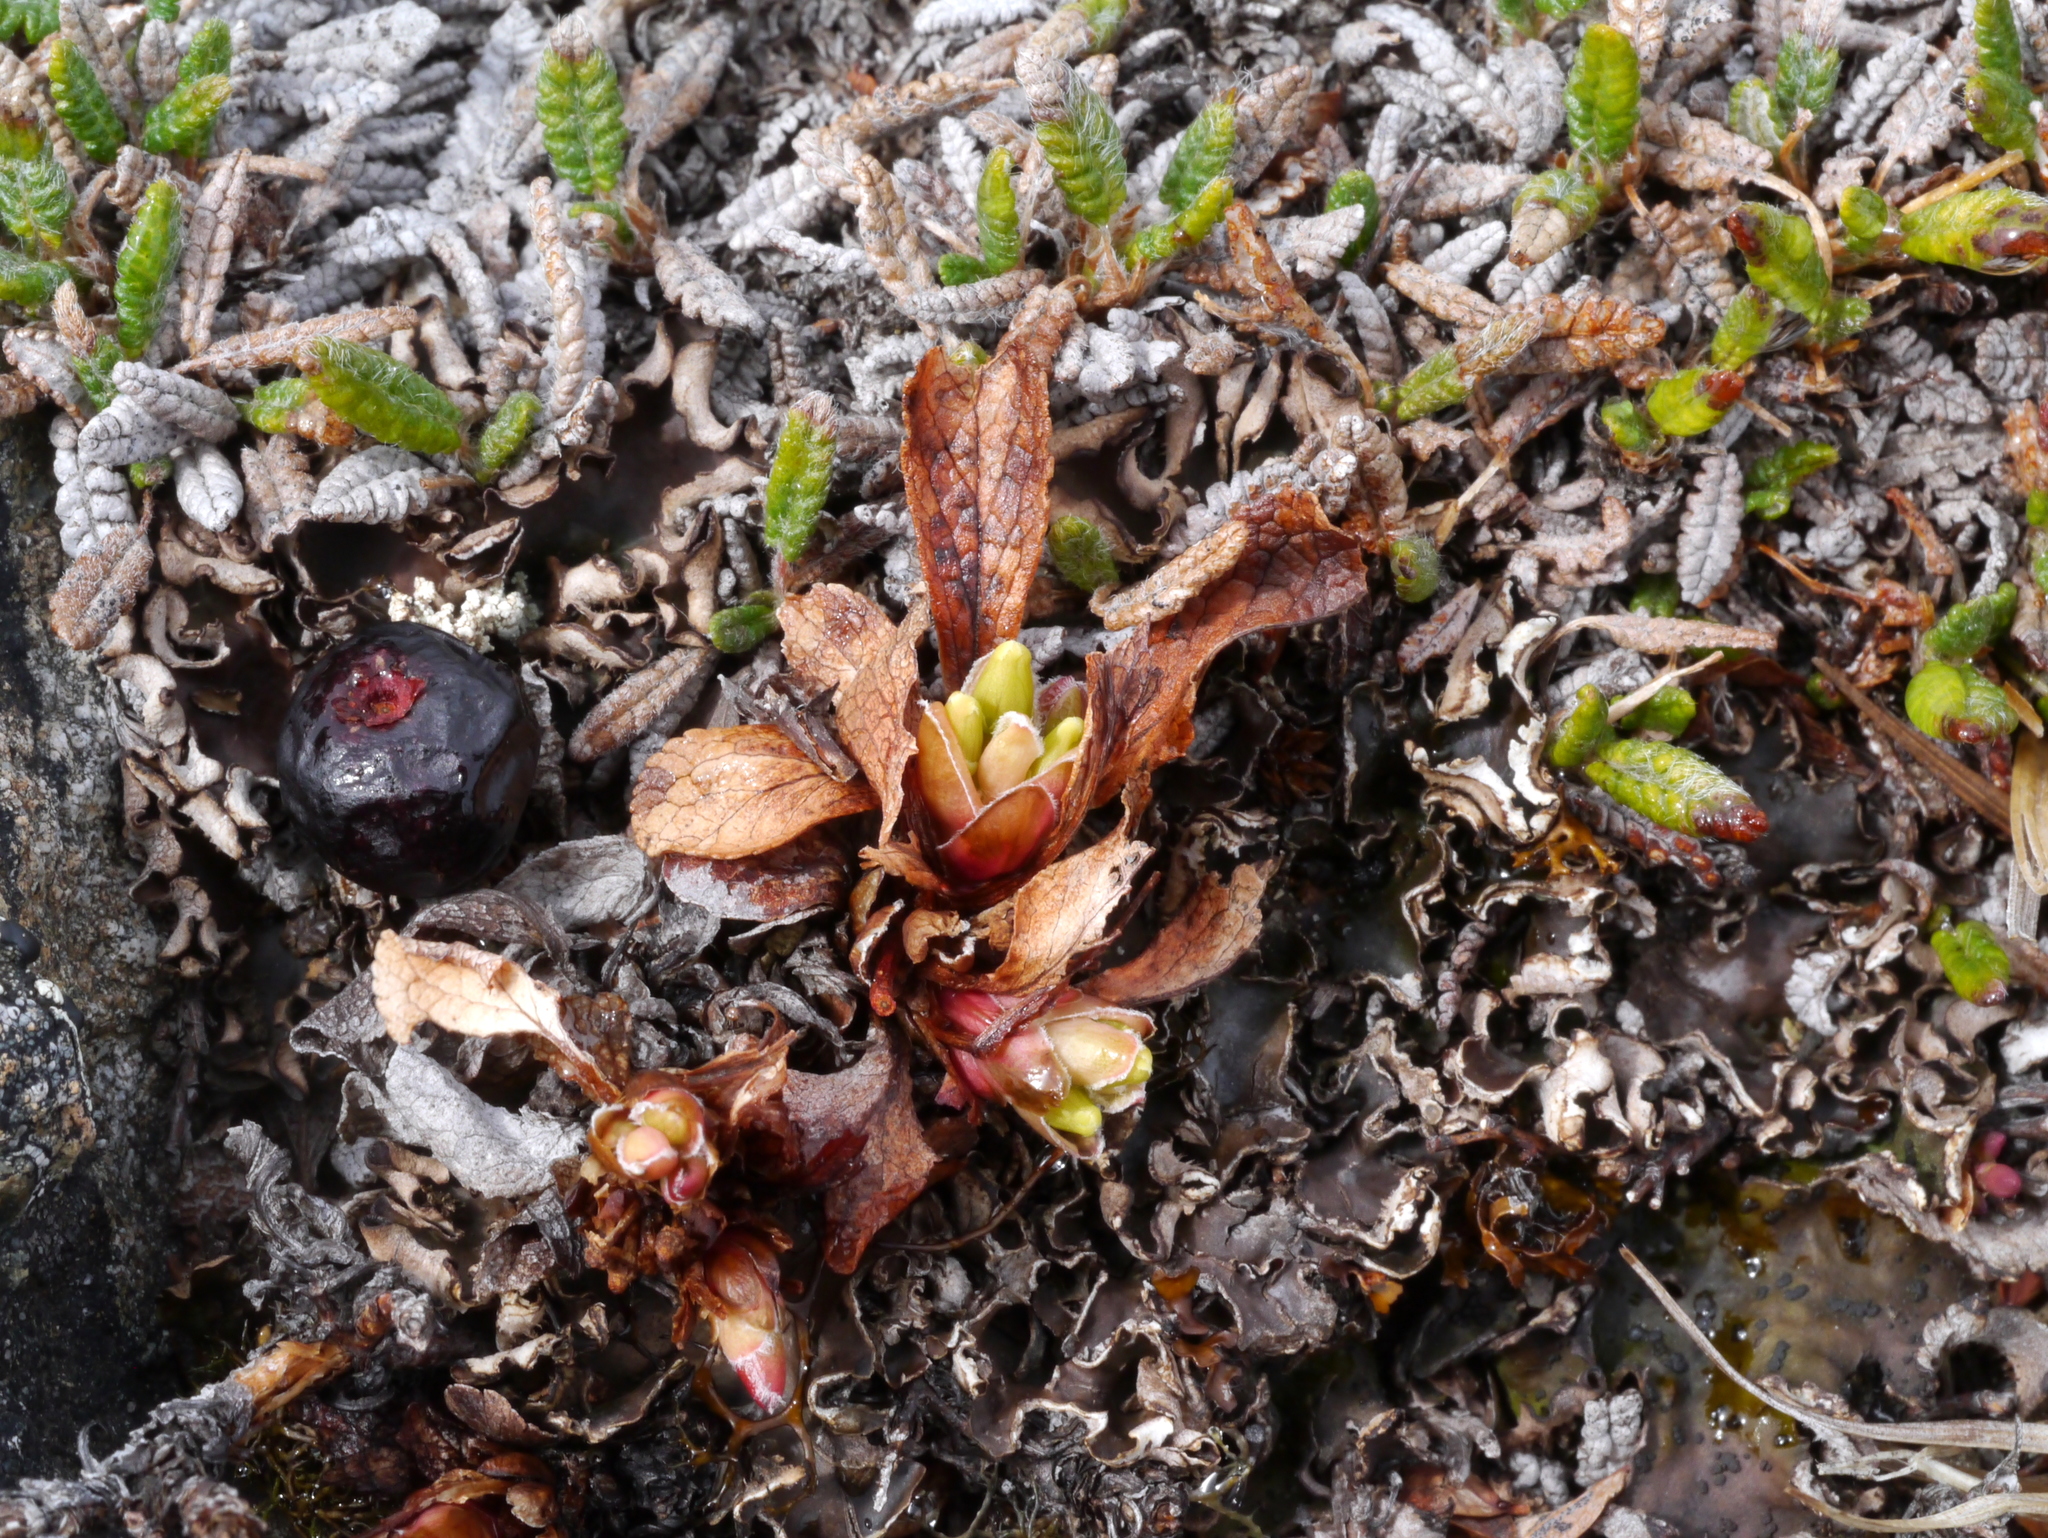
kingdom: Plantae
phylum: Tracheophyta
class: Magnoliopsida
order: Ericales
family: Ericaceae
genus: Arctostaphylos
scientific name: Arctostaphylos alpinus
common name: Alpine bearberry
